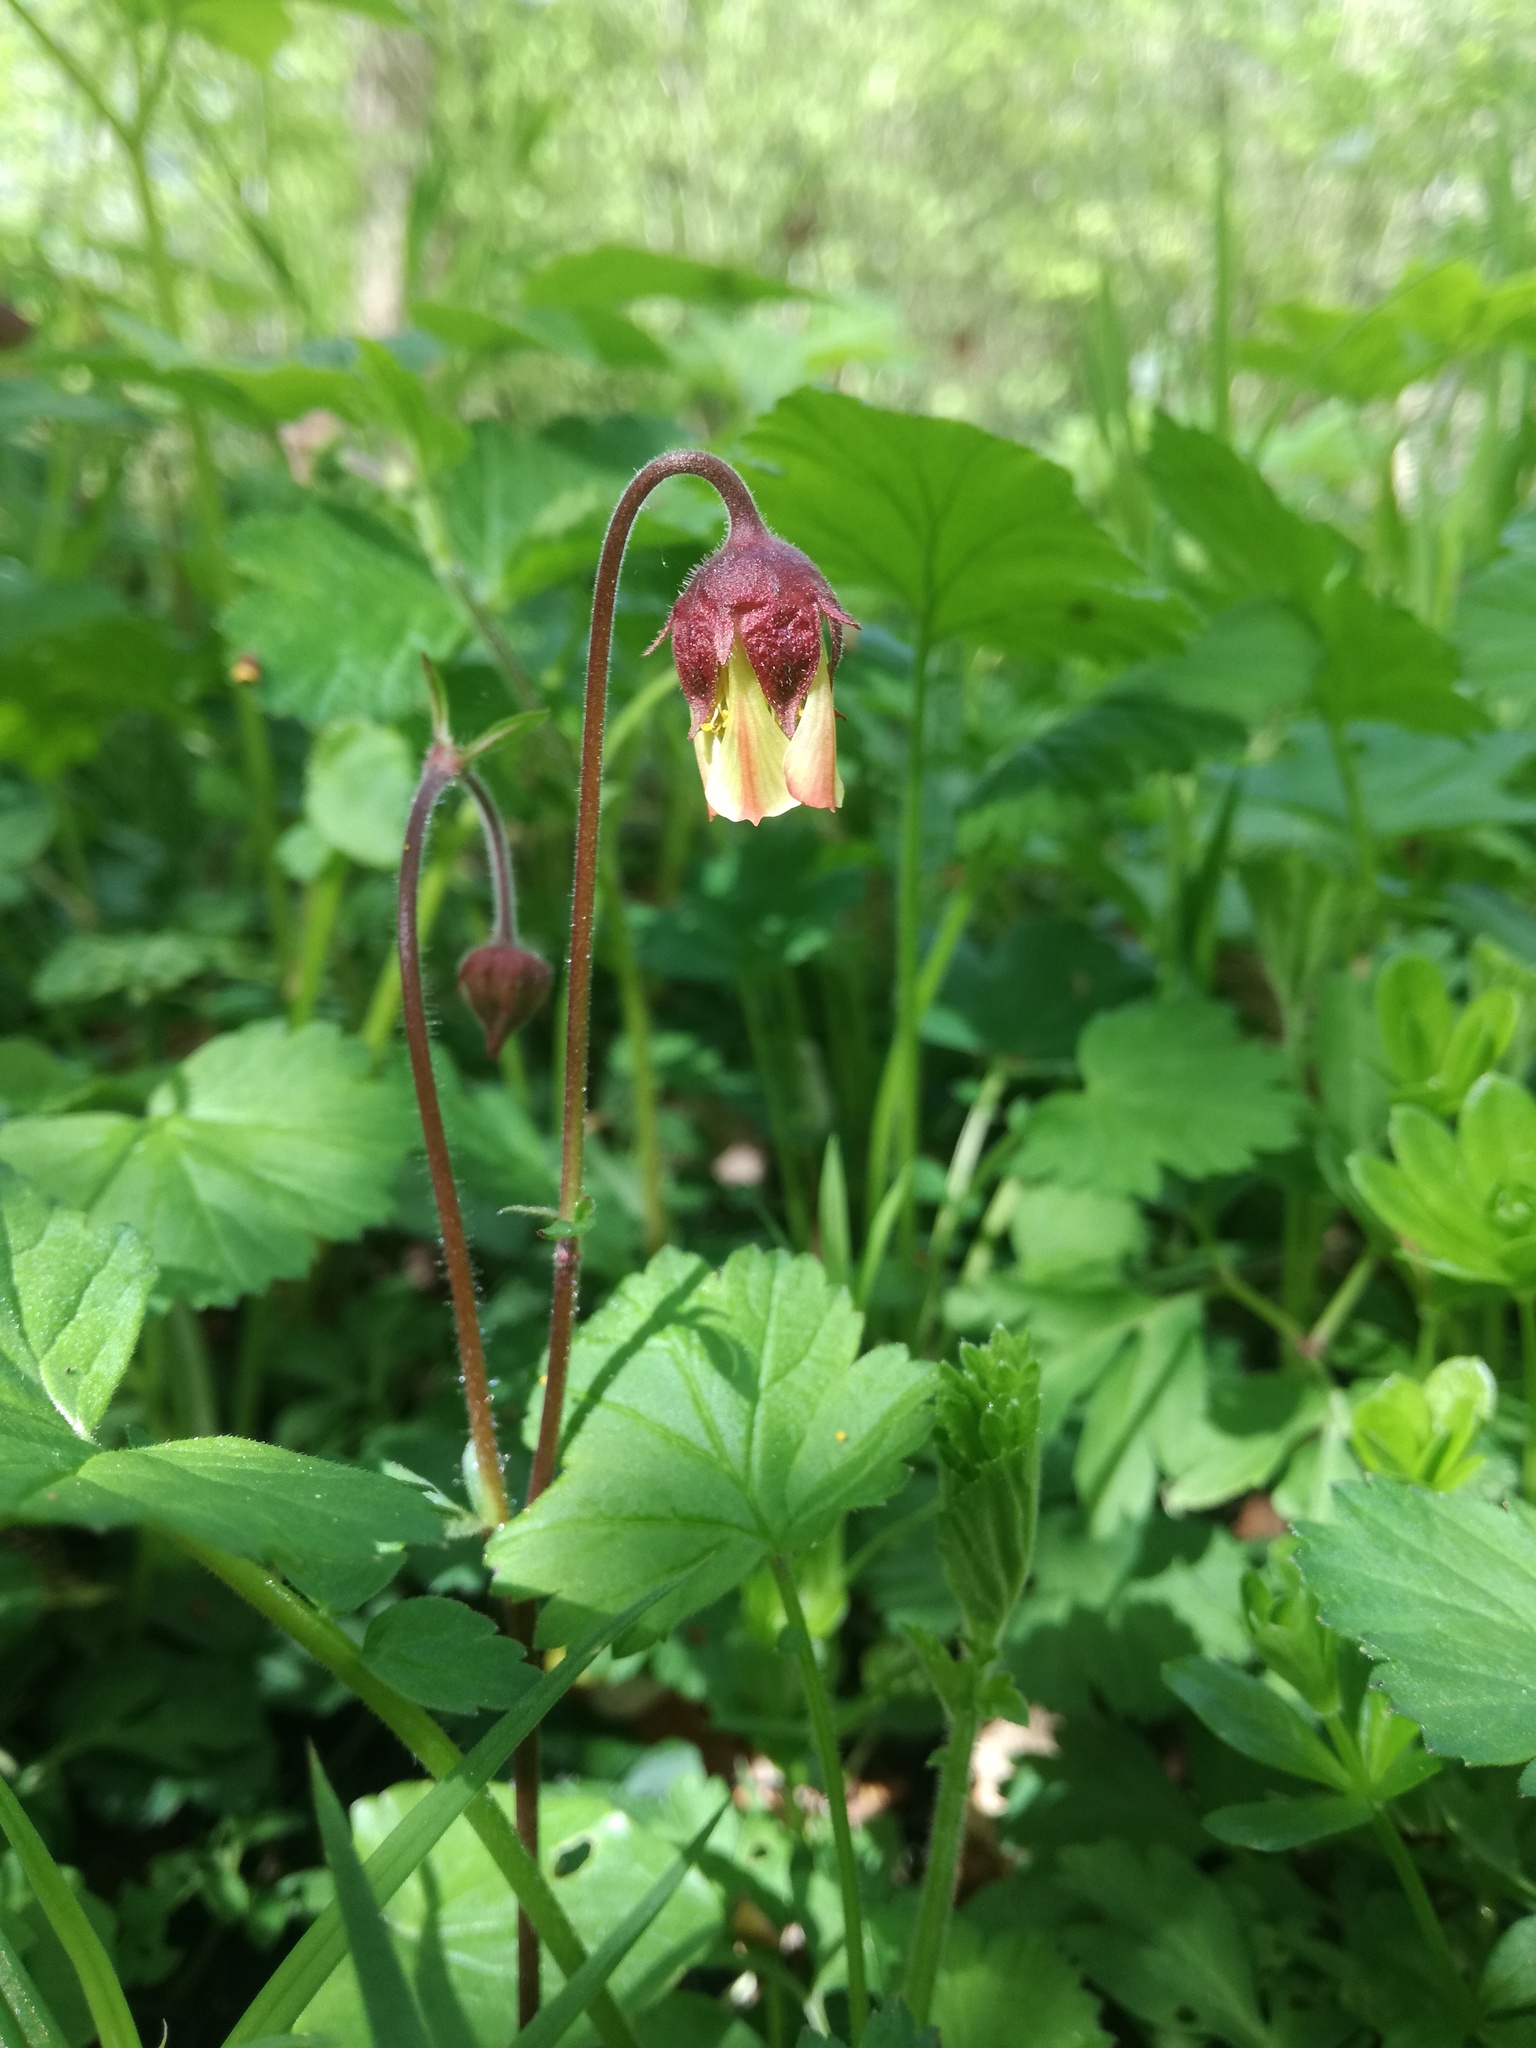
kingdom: Plantae
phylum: Tracheophyta
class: Magnoliopsida
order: Rosales
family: Rosaceae
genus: Geum
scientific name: Geum rivale
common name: Water avens
